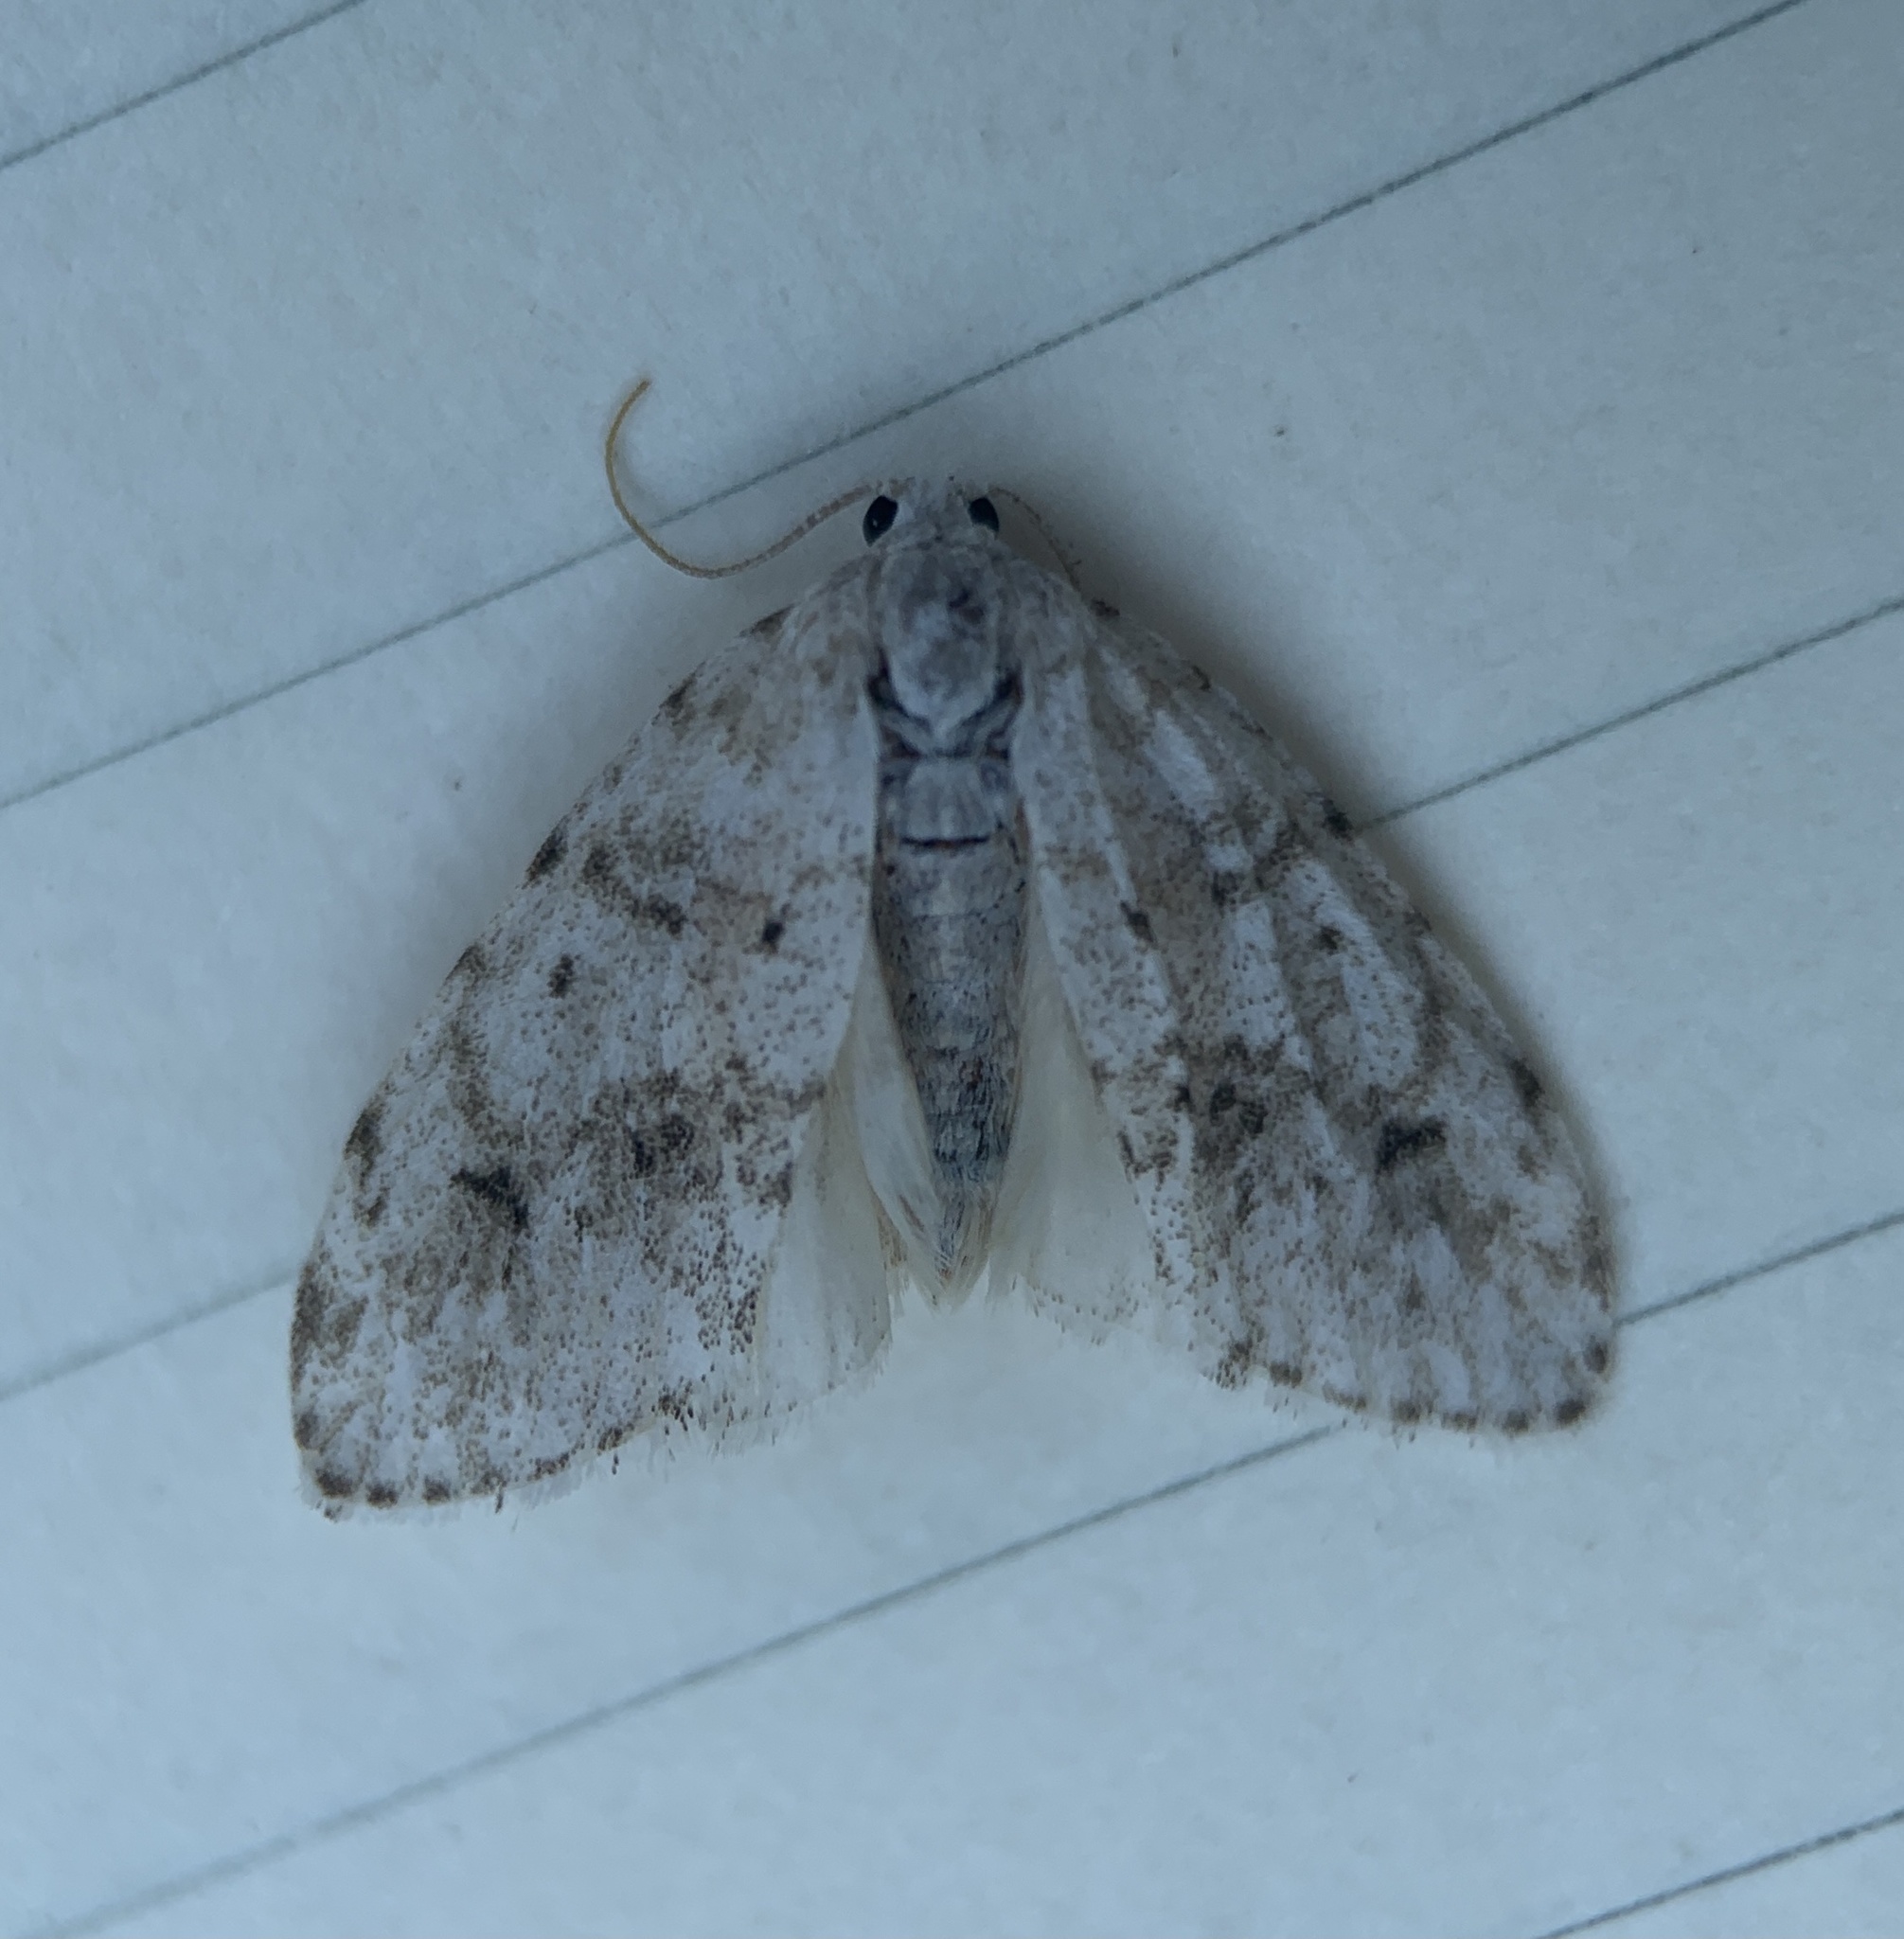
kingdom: Animalia
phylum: Arthropoda
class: Insecta
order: Lepidoptera
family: Erebidae
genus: Clemensia
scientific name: Clemensia albata
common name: Little white lichen moth
